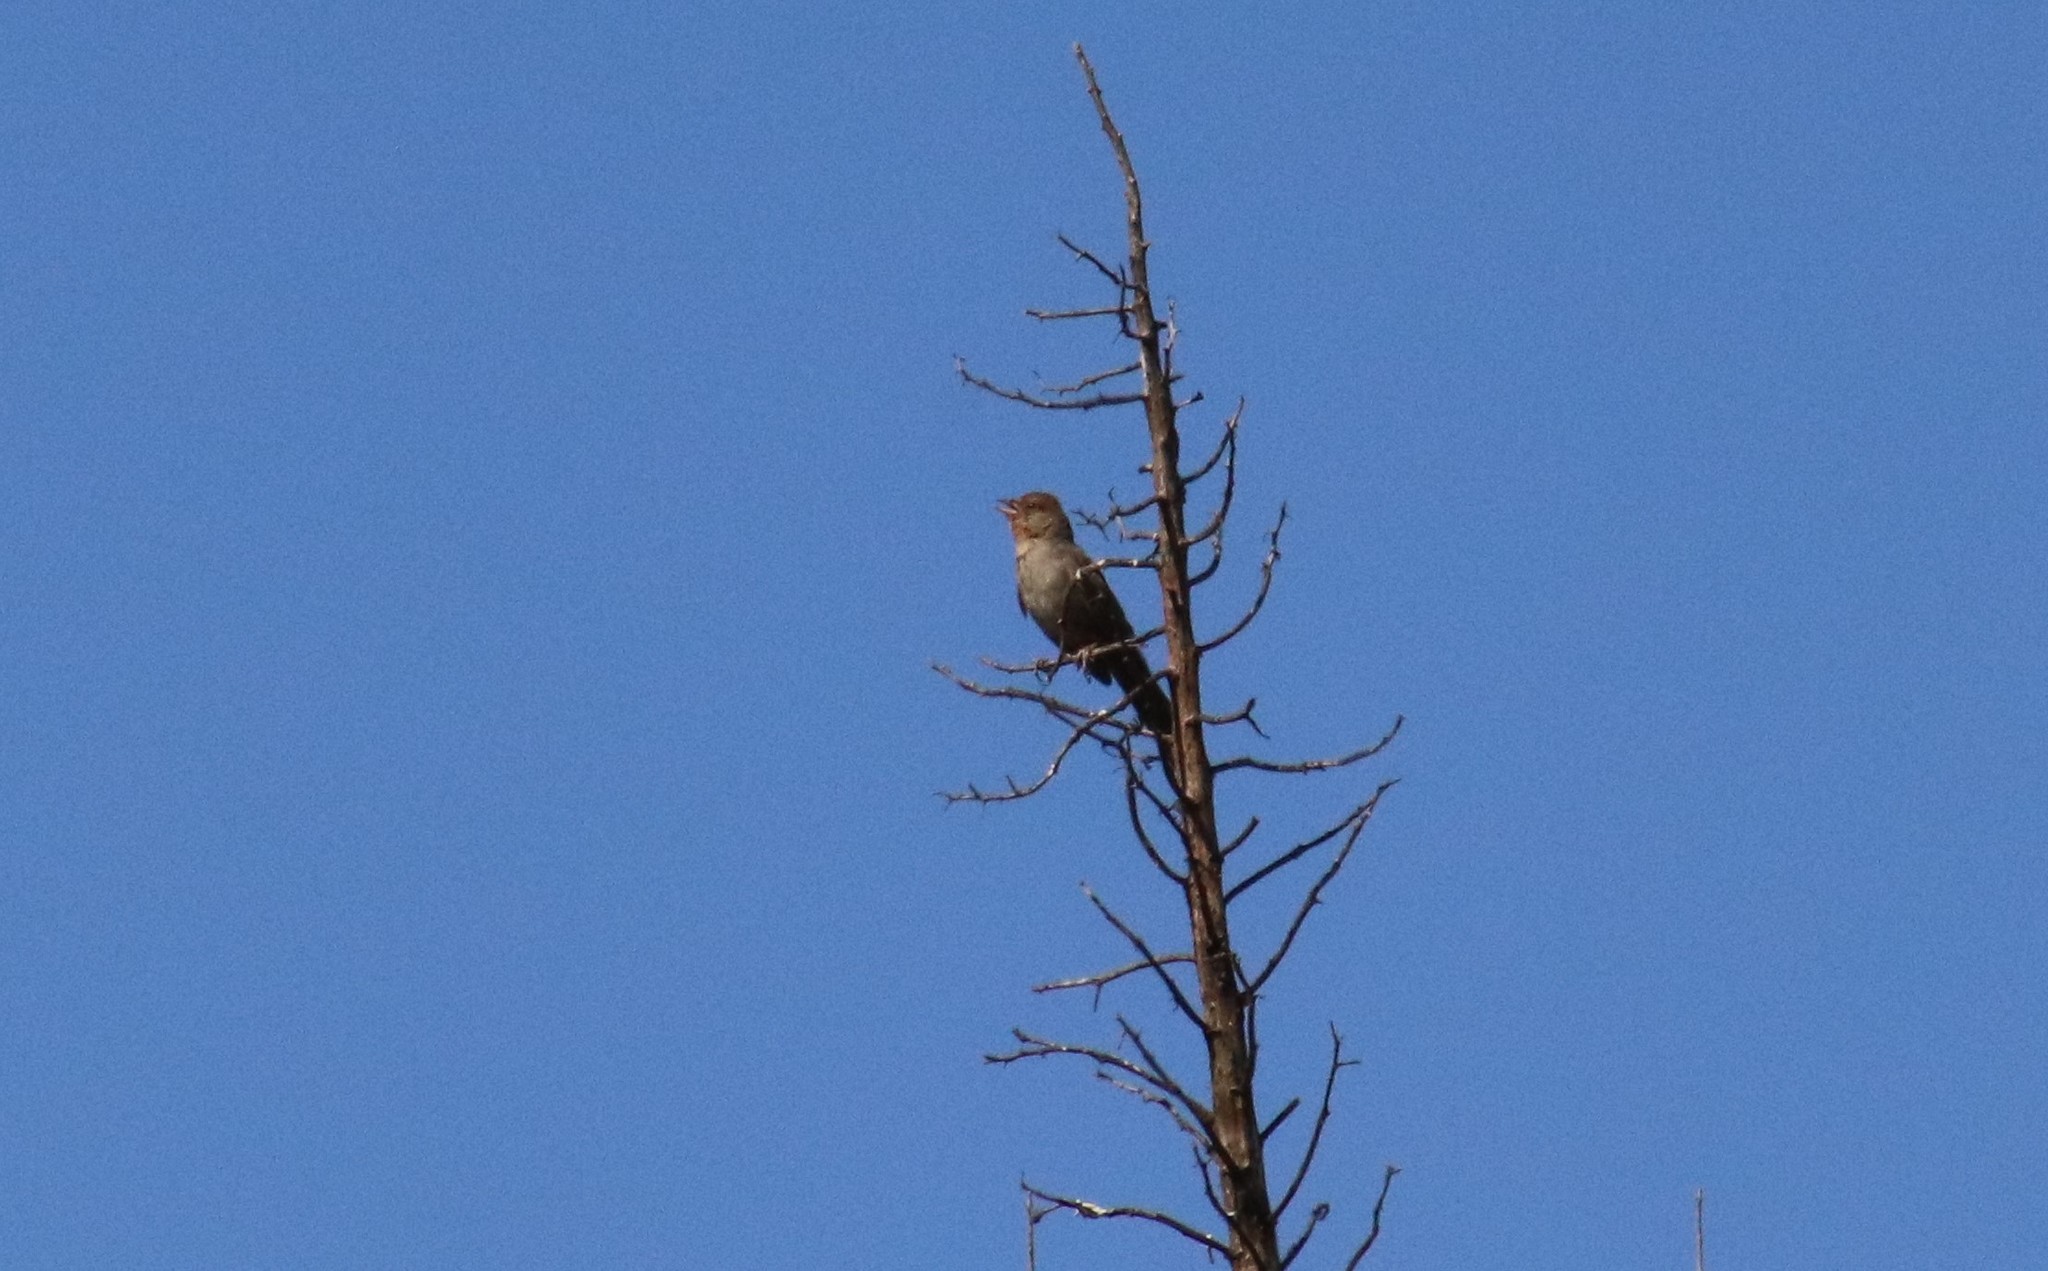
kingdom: Animalia
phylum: Chordata
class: Aves
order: Passeriformes
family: Passerellidae
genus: Melozone
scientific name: Melozone crissalis
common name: California towhee
